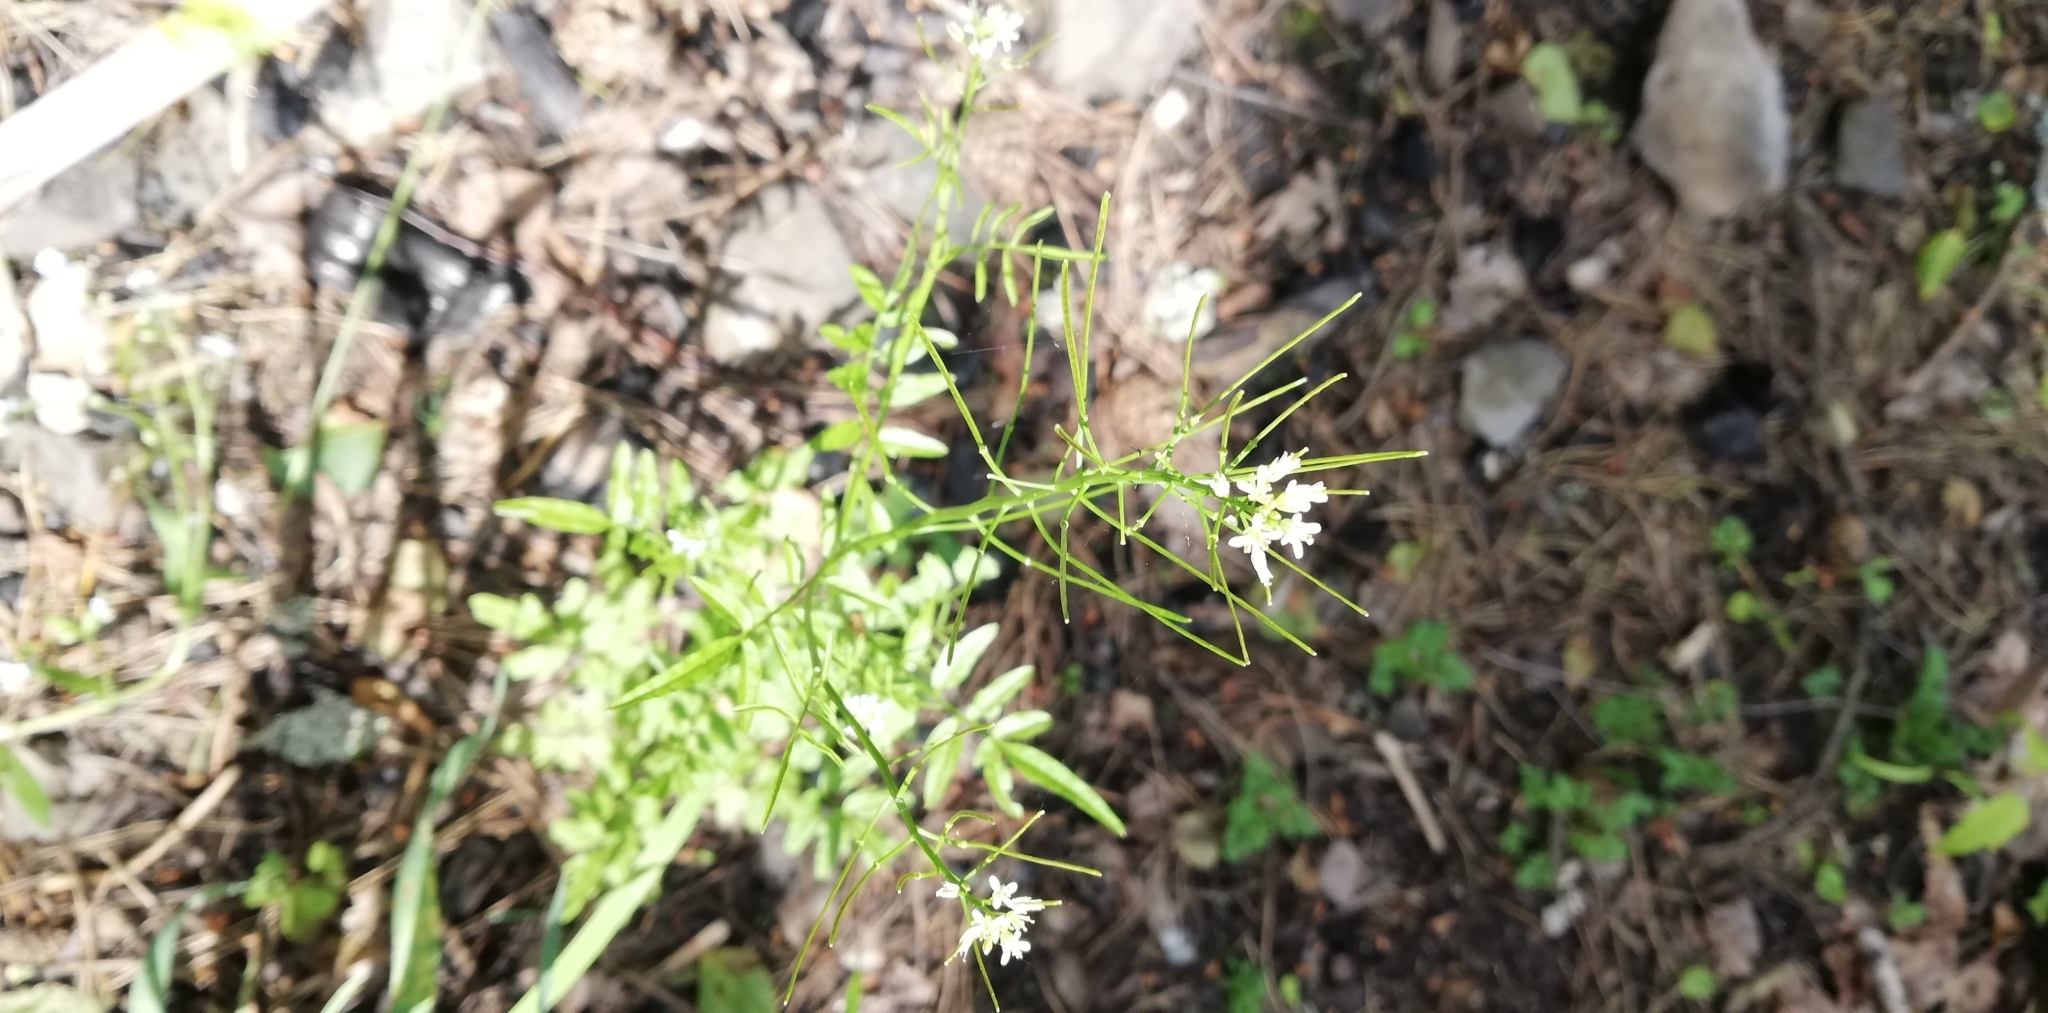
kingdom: Plantae
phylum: Tracheophyta
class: Magnoliopsida
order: Brassicales
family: Brassicaceae
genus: Cardamine
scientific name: Cardamine impatiens
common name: Narrow-leaved bitter-cress
